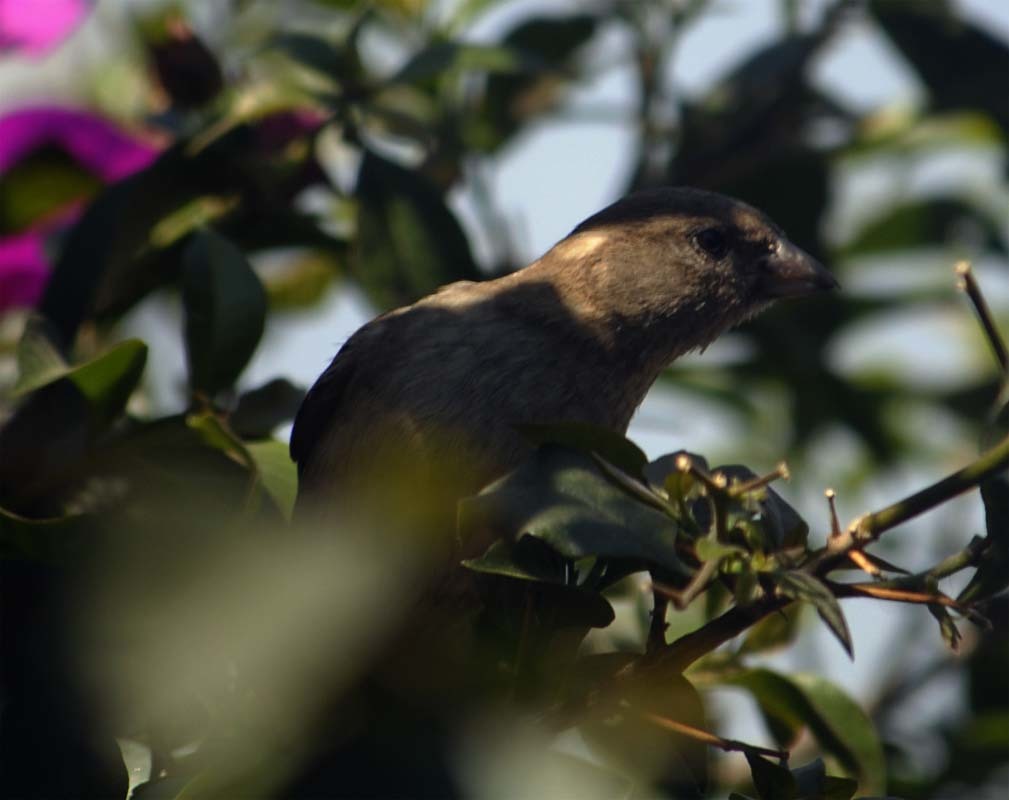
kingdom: Animalia
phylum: Chordata
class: Aves
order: Passeriformes
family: Passeridae
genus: Passer
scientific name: Passer domesticus
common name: House sparrow
